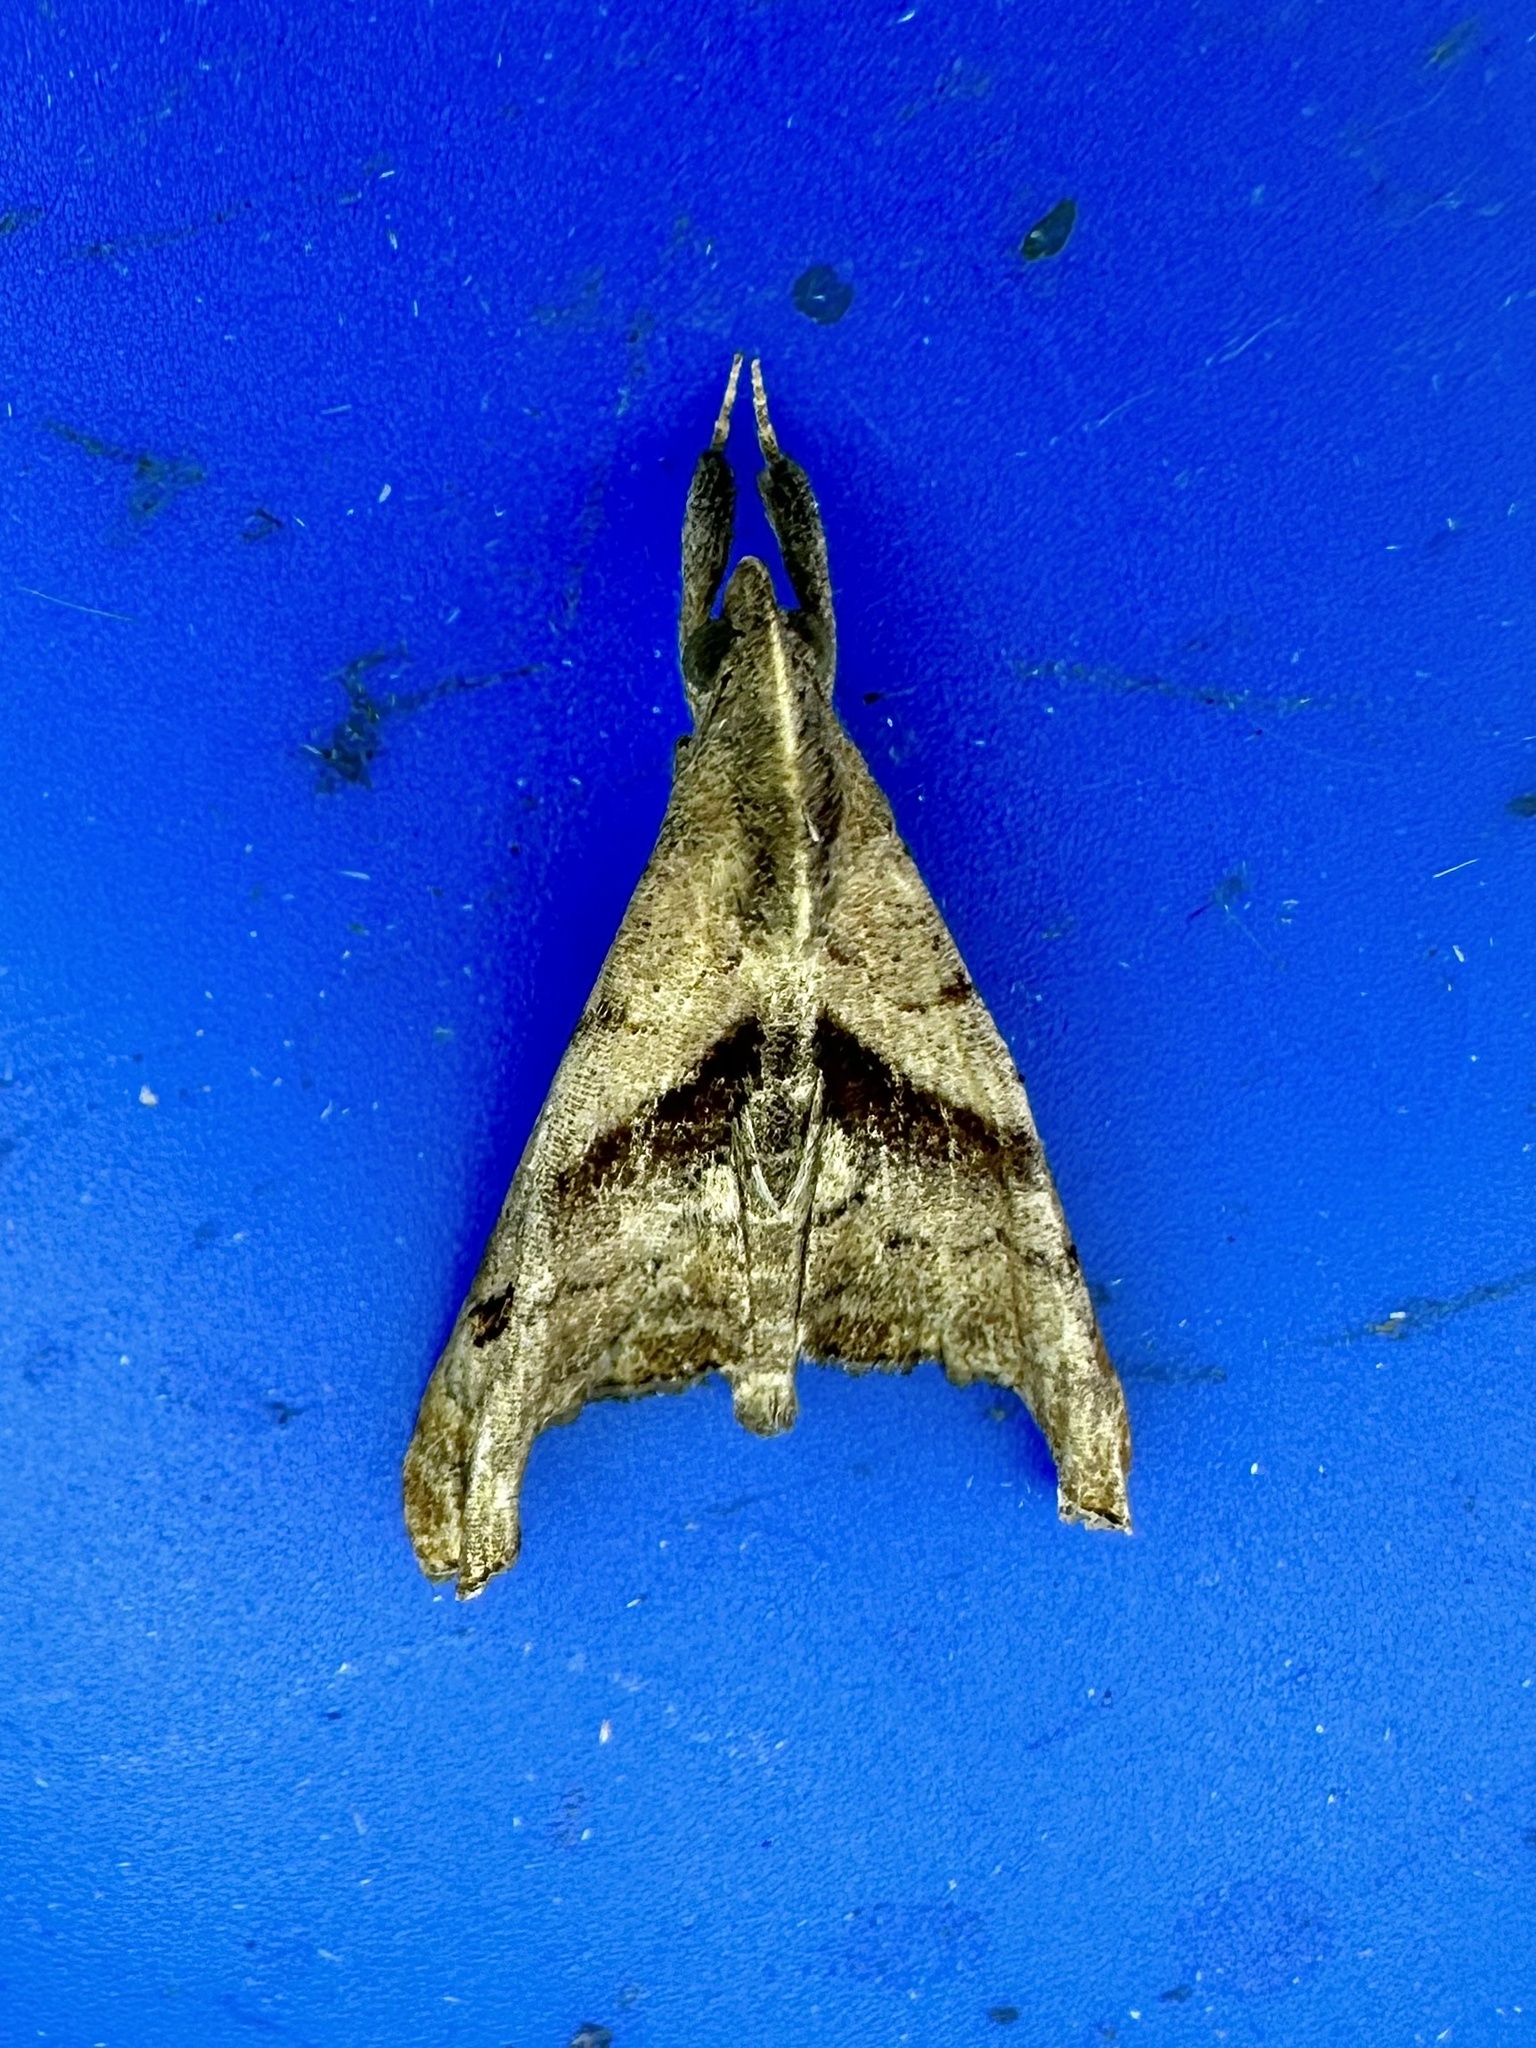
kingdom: Animalia
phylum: Arthropoda
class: Insecta
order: Lepidoptera
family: Erebidae
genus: Palthis
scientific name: Palthis angulalis
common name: Dark-spotted palthis moth
